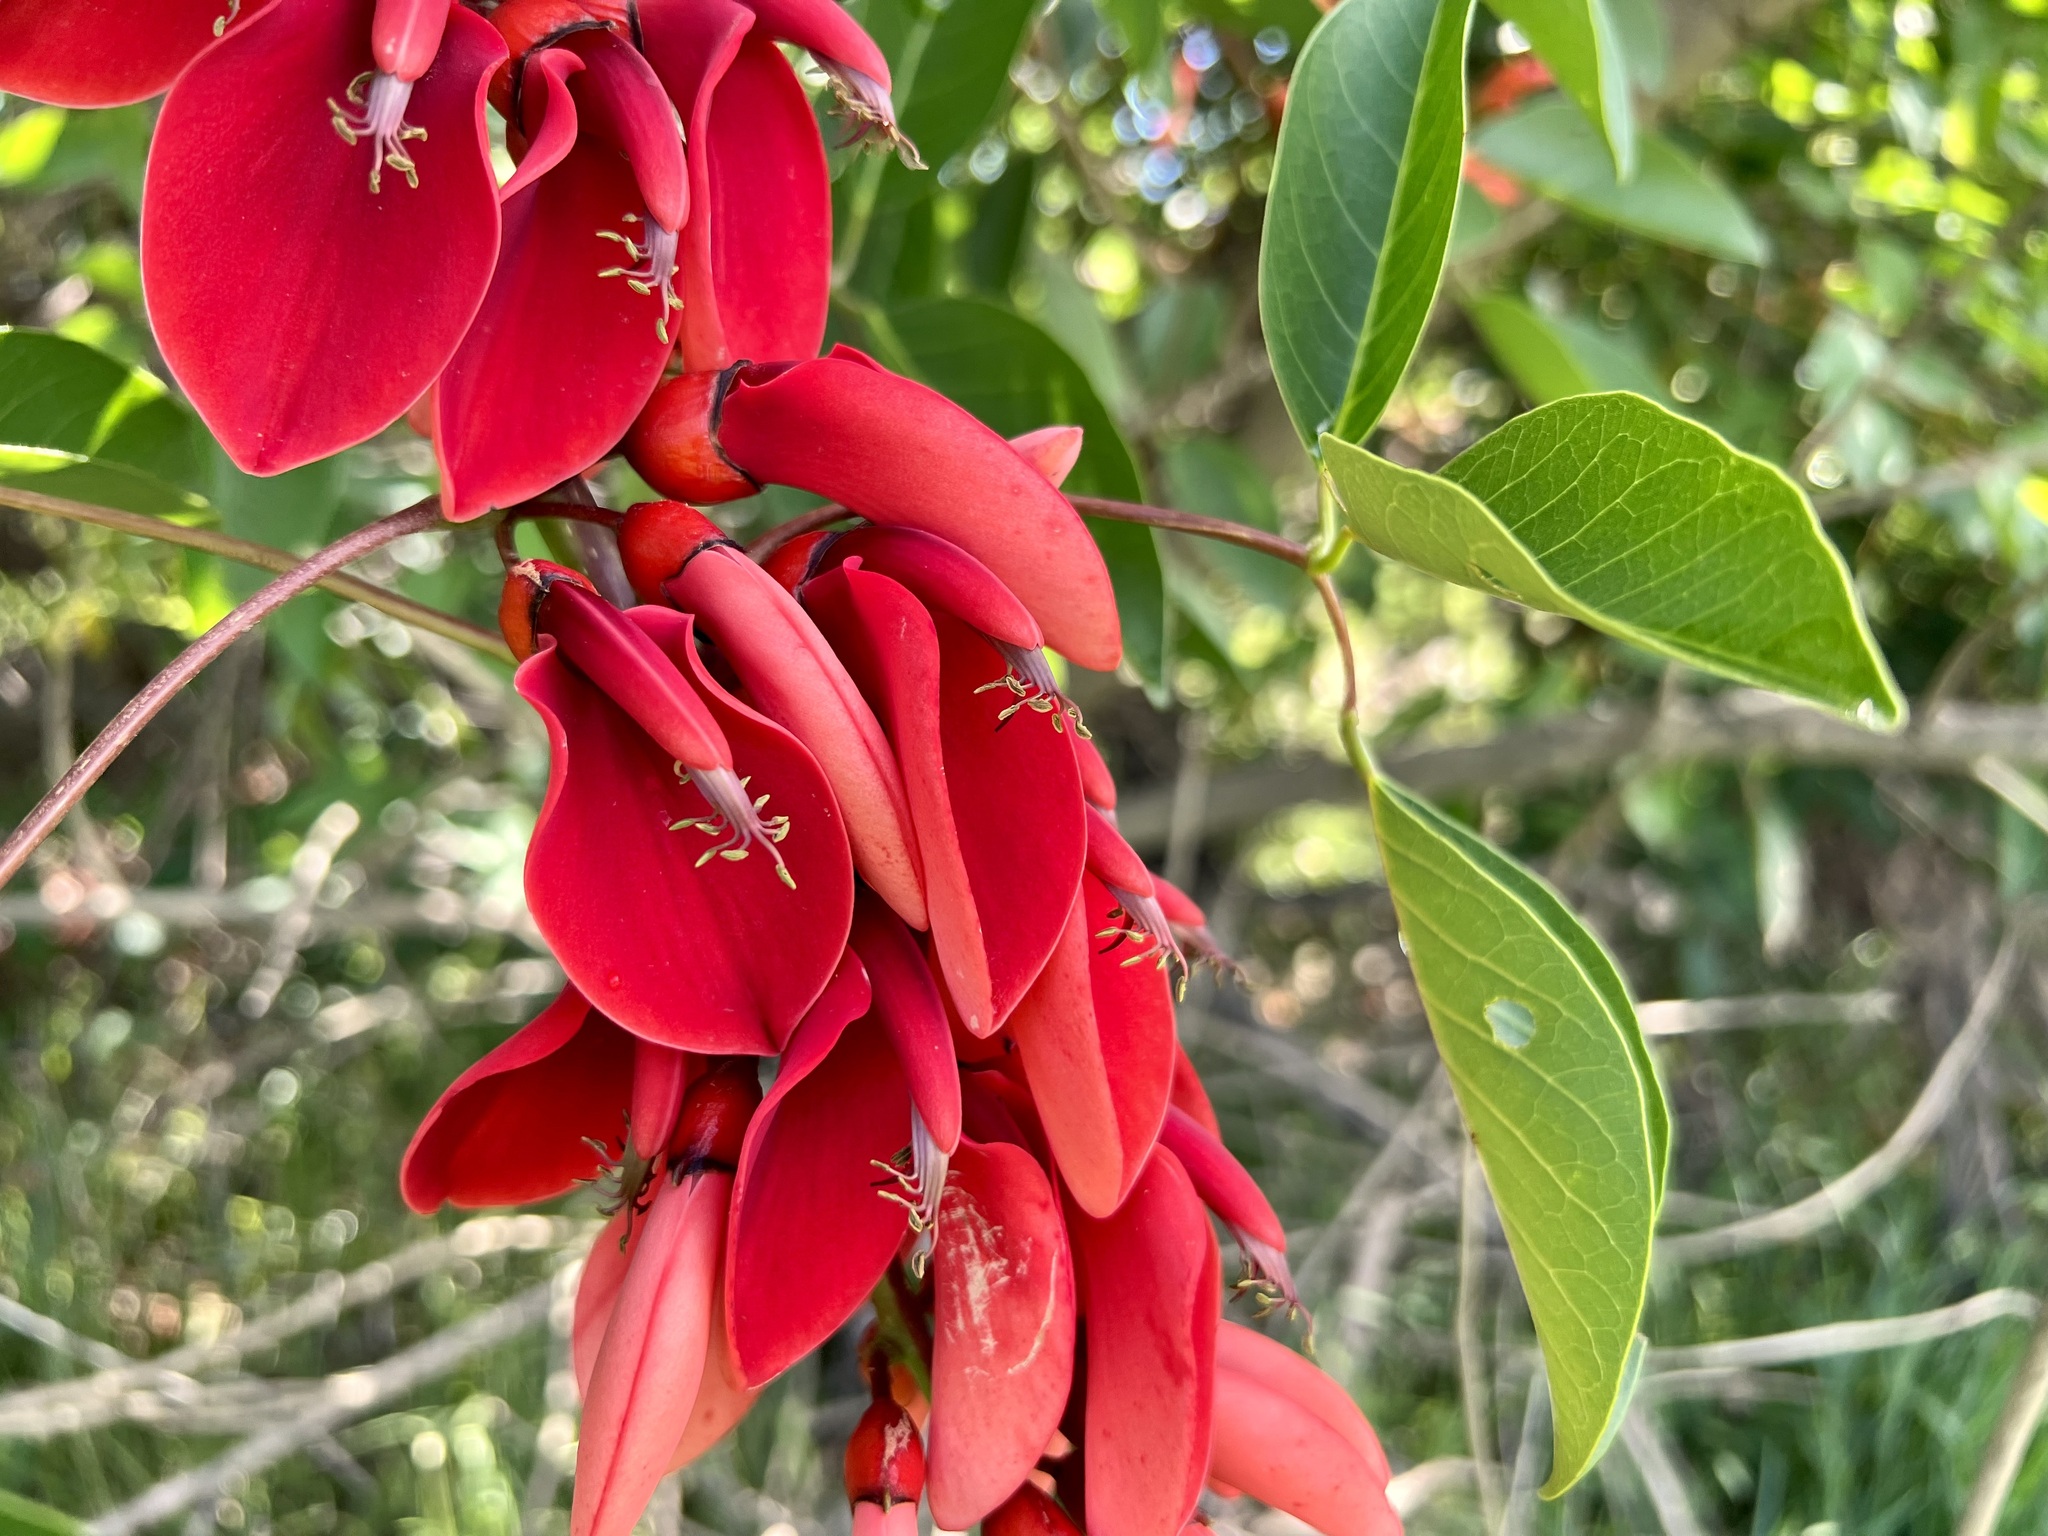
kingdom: Plantae
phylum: Tracheophyta
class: Magnoliopsida
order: Fabales
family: Fabaceae
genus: Erythrina
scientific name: Erythrina crista-galli
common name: Cockspur coral tree
